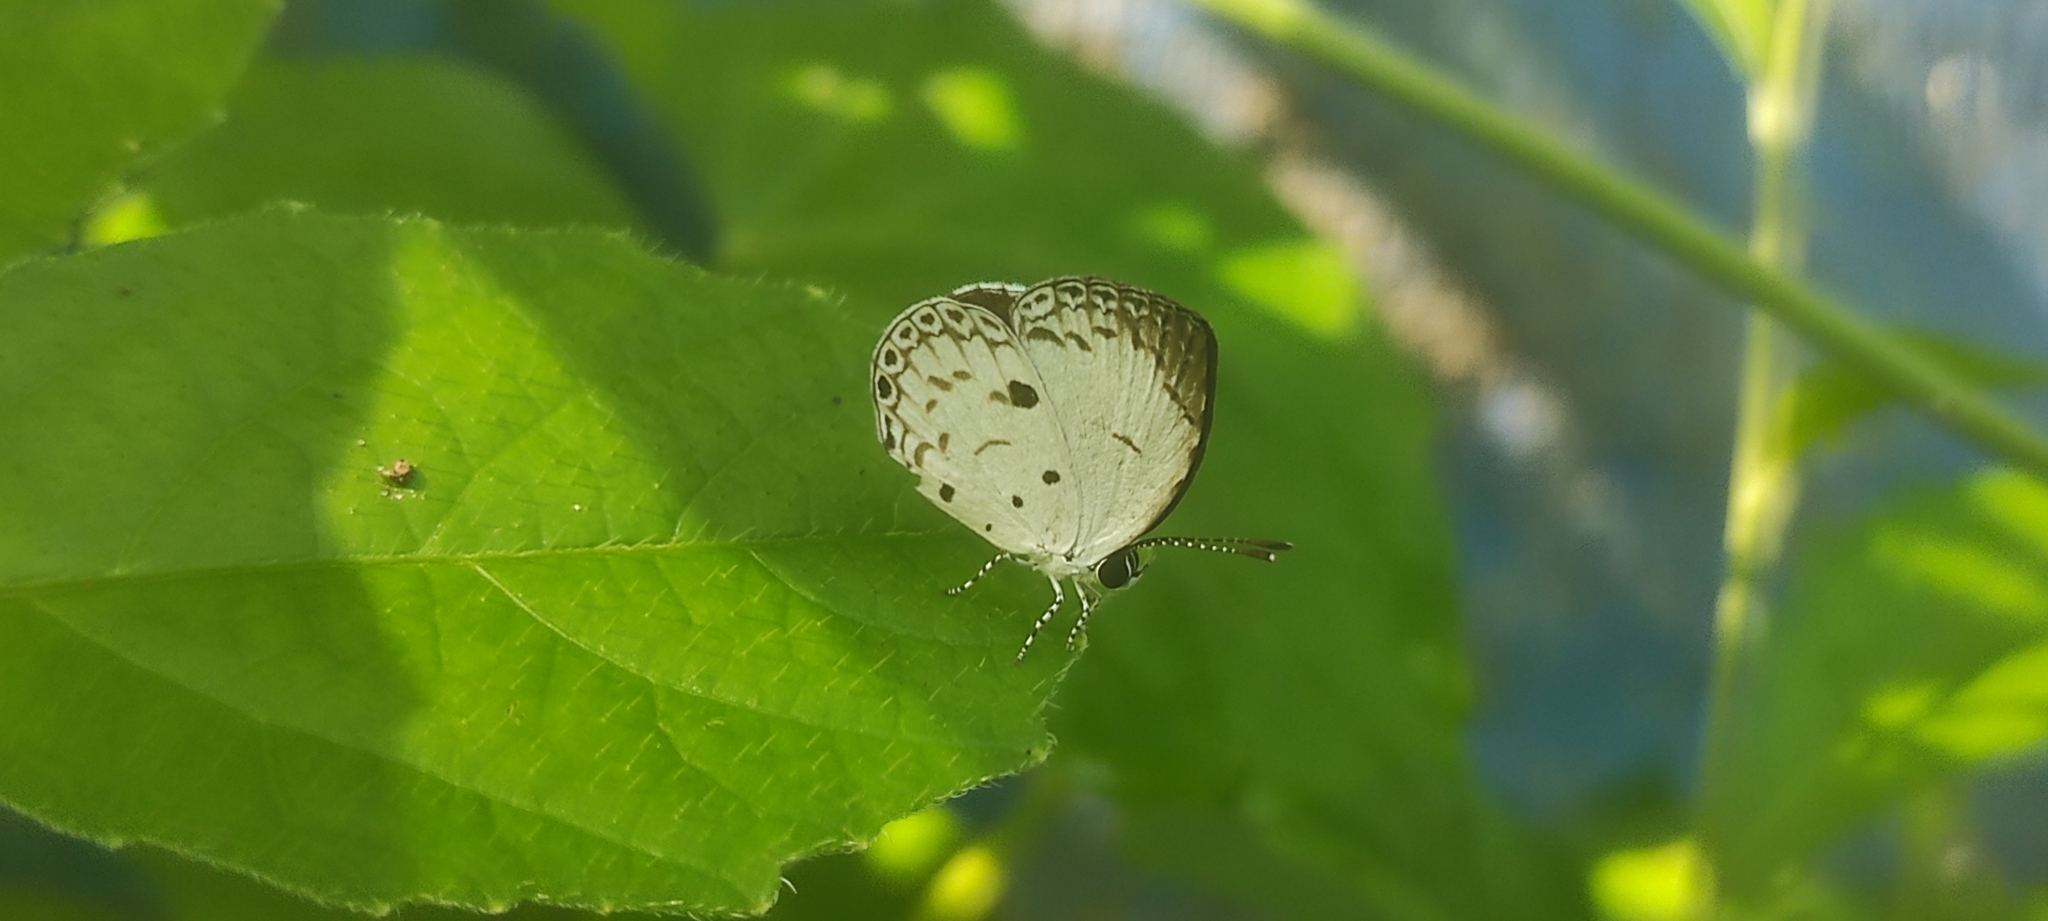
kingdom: Animalia
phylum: Arthropoda
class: Insecta
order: Lepidoptera
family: Lycaenidae
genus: Neopithecops
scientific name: Neopithecops zalmora
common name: Quaker
